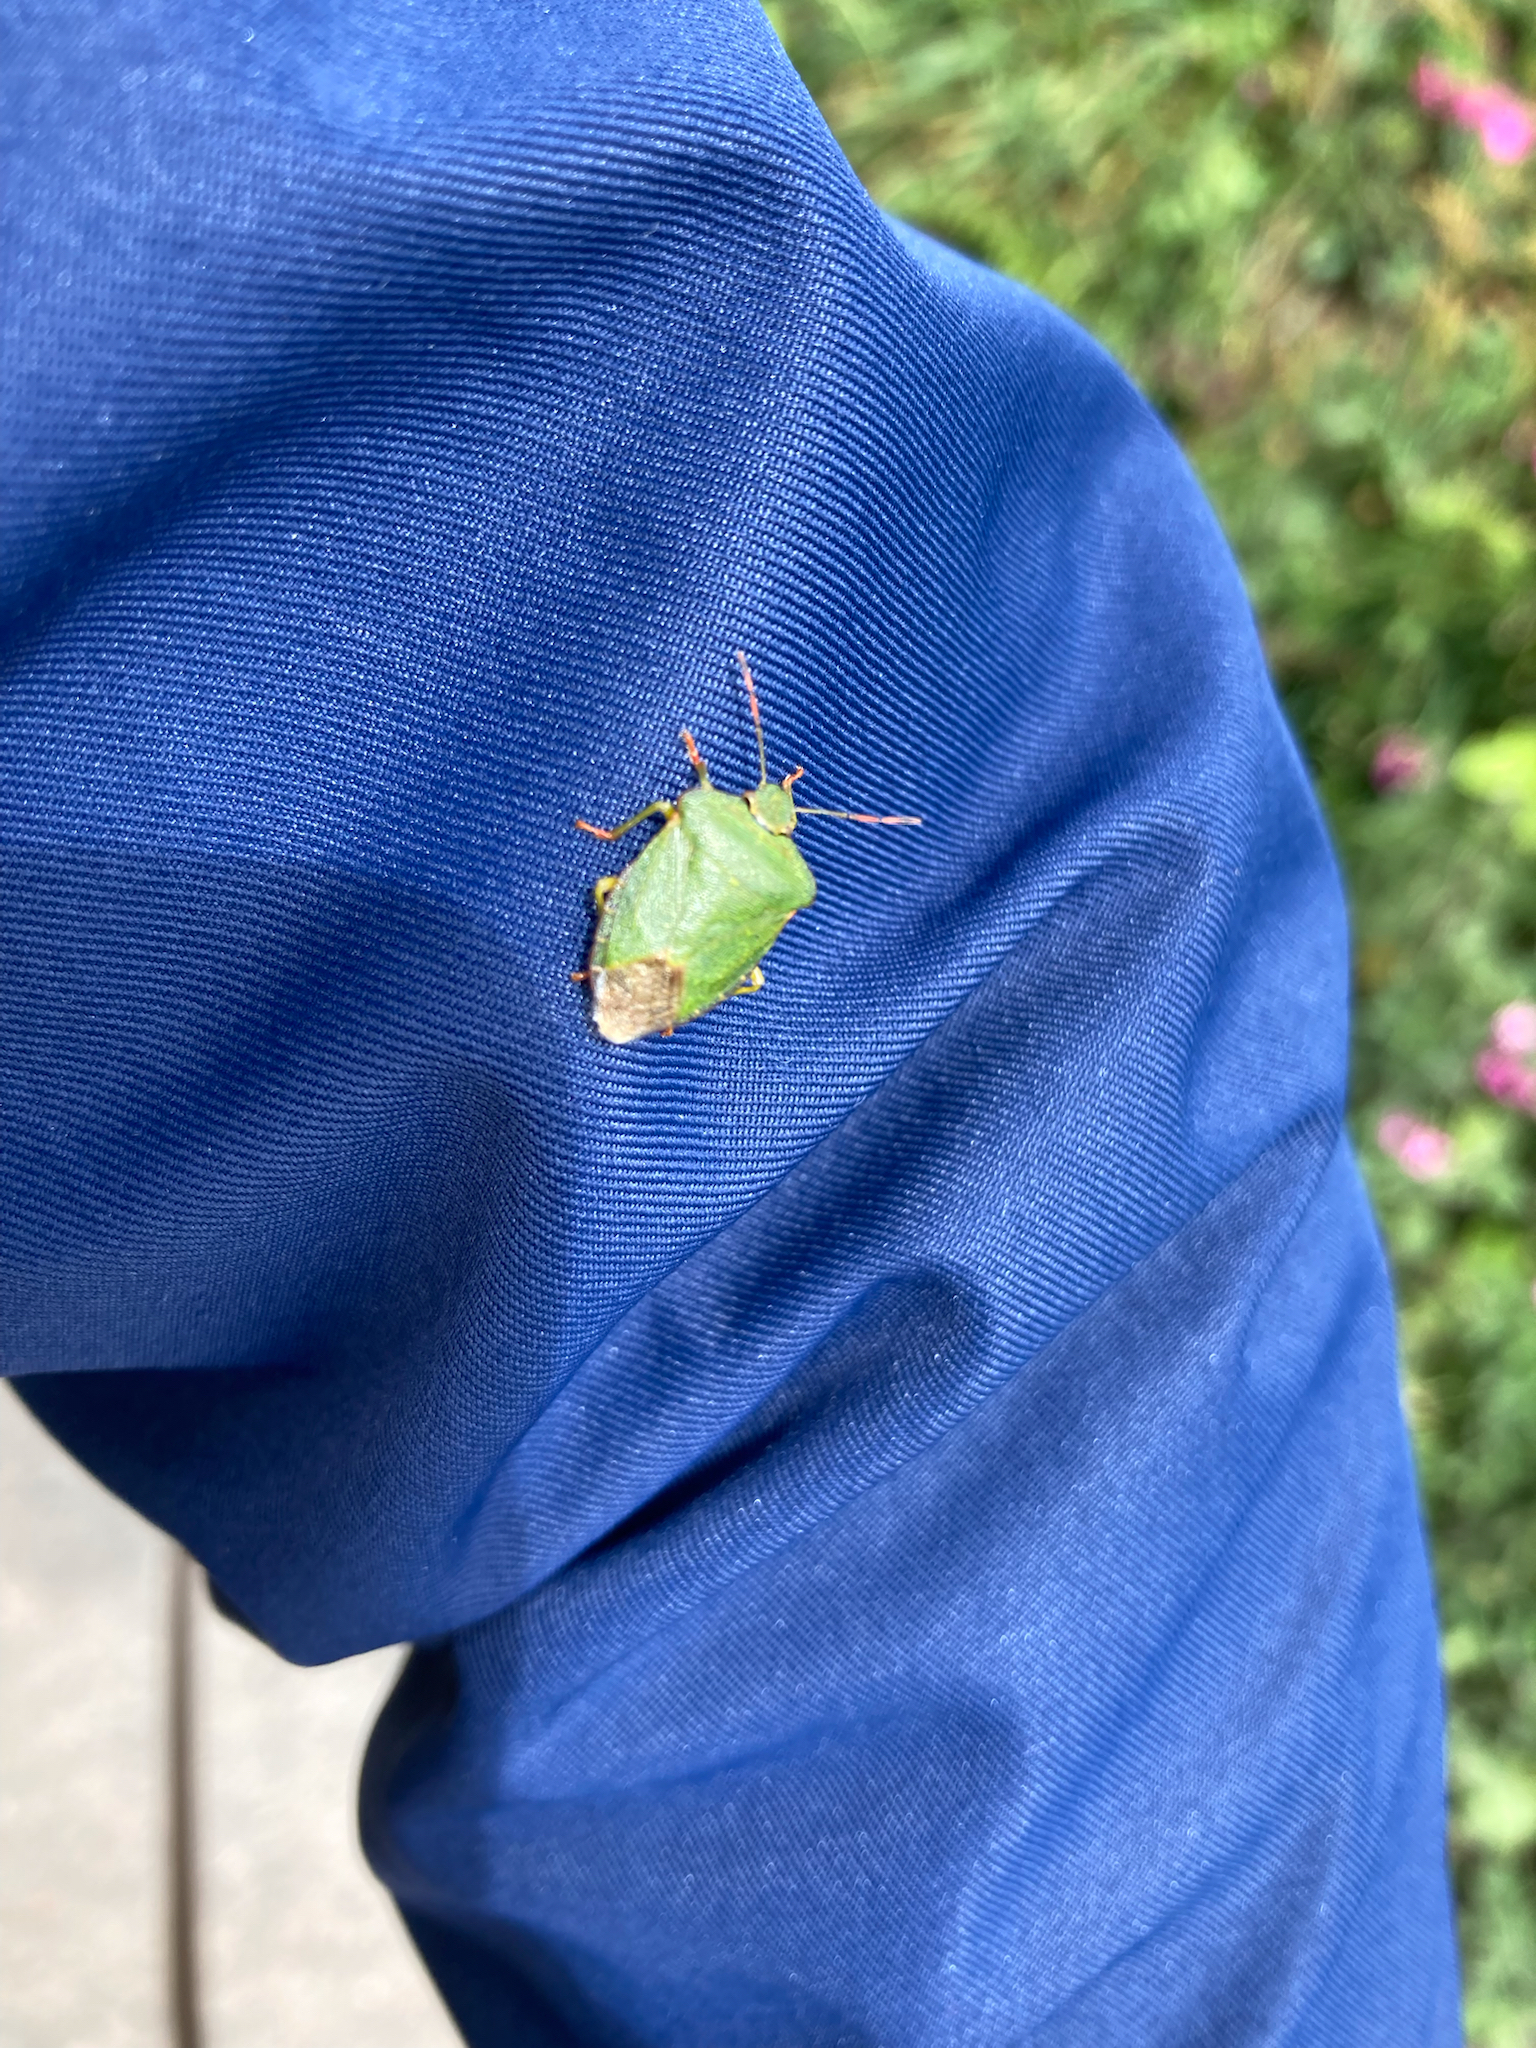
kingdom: Animalia
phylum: Arthropoda
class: Insecta
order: Hemiptera
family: Pentatomidae
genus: Palomena
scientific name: Palomena prasina
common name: Green shieldbug
